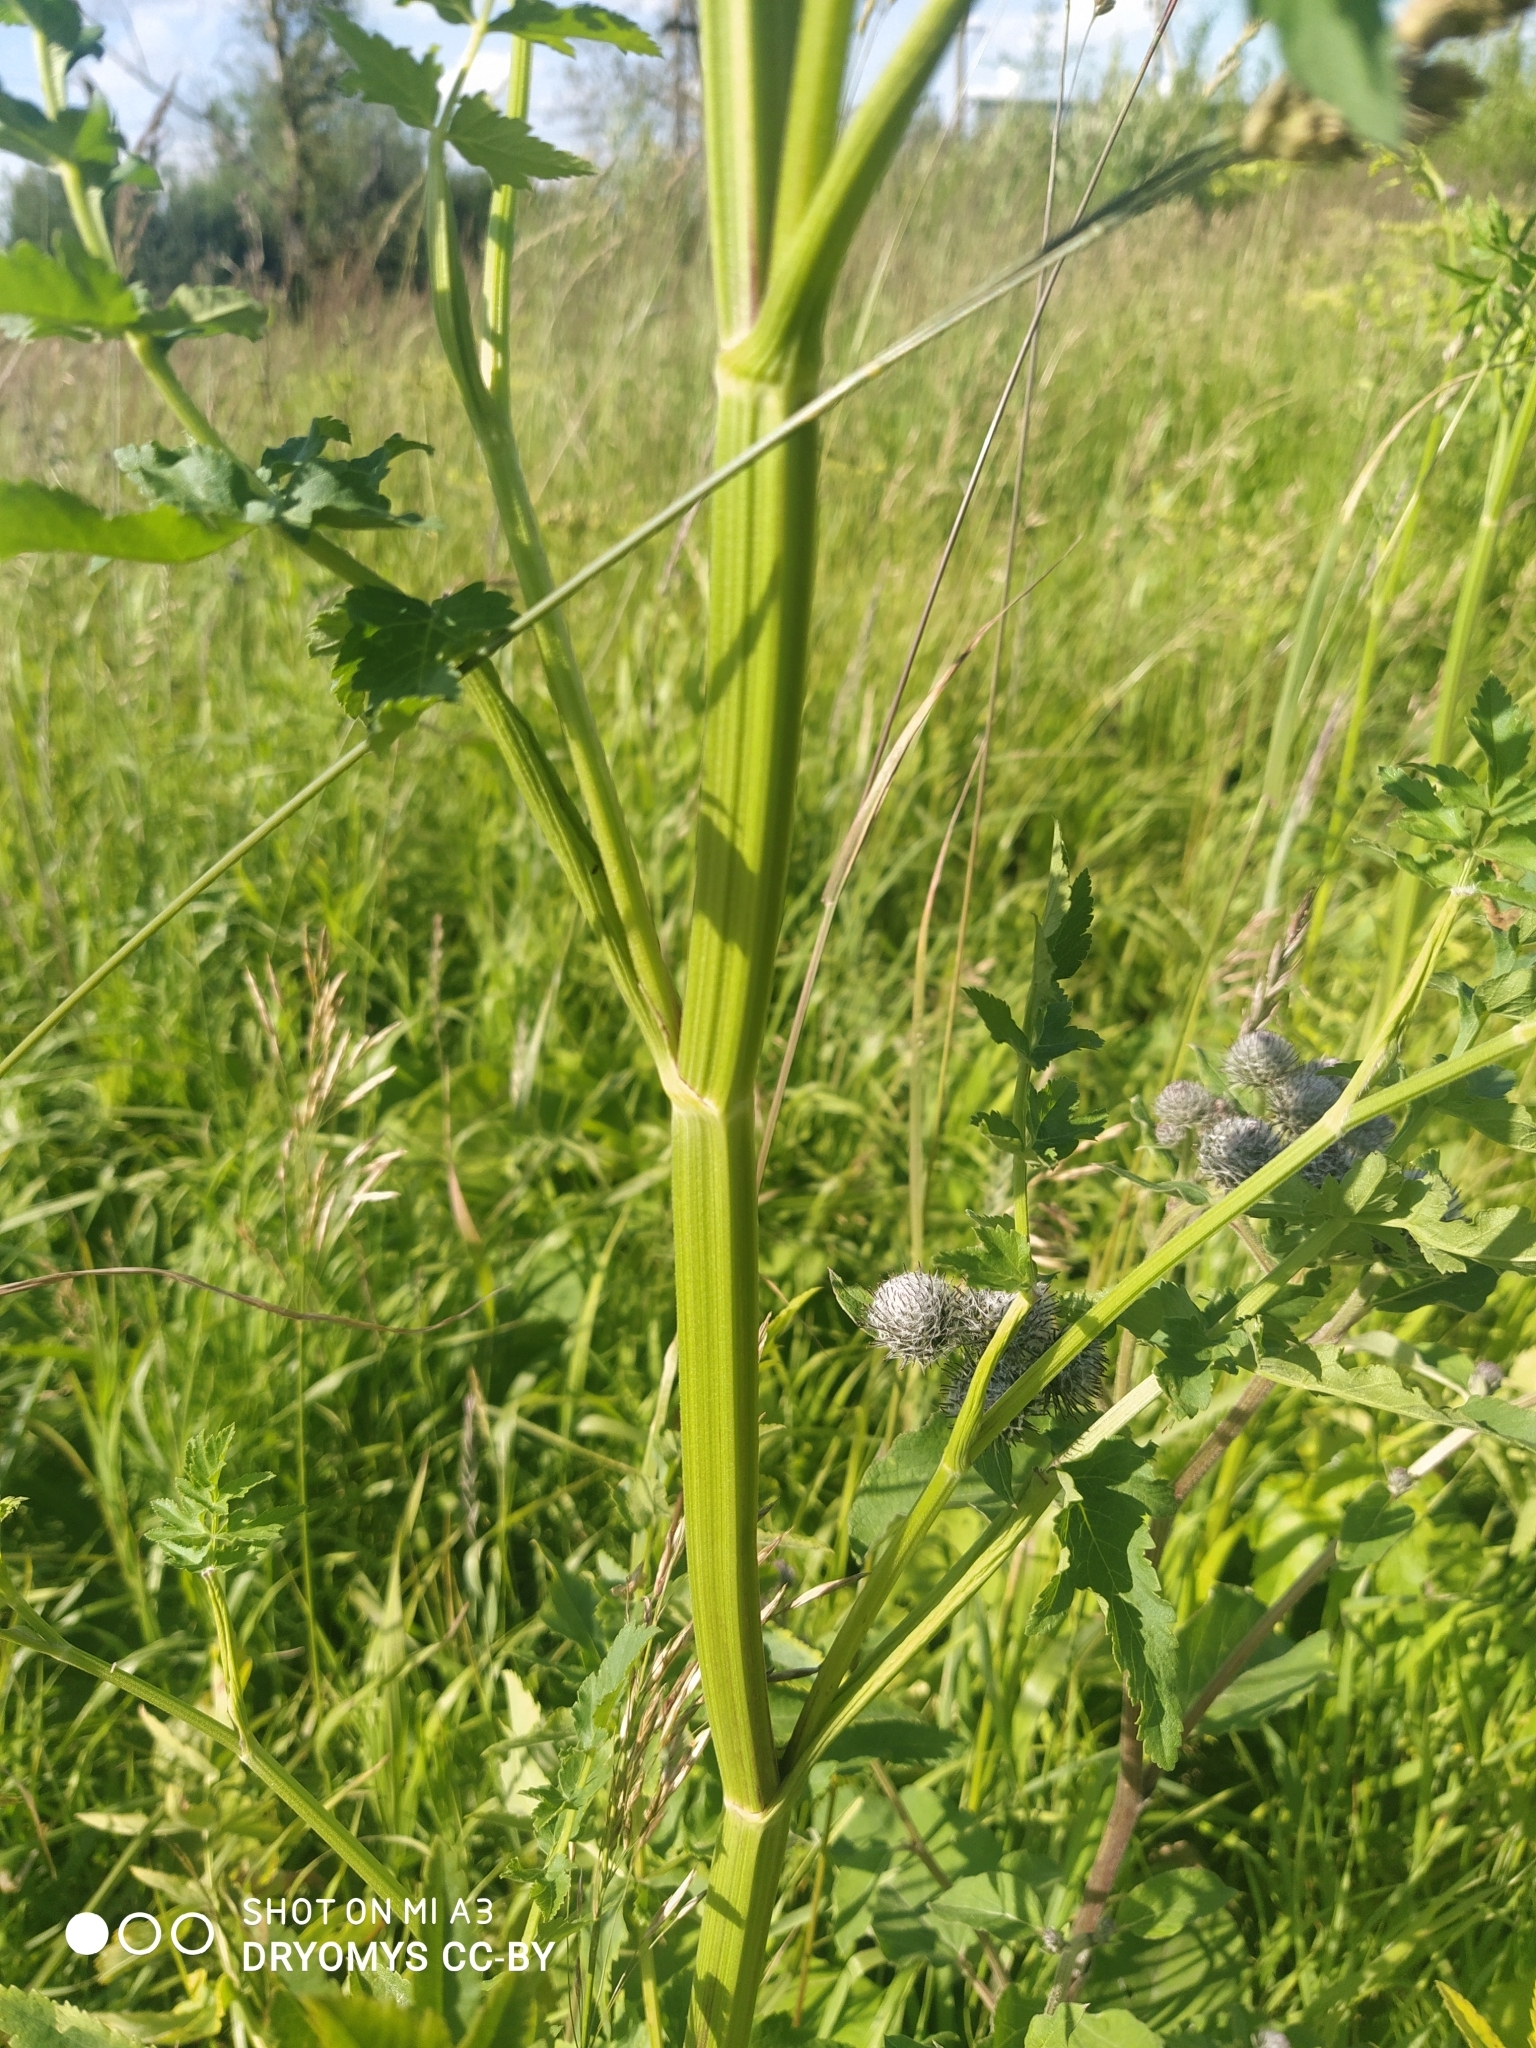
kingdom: Plantae
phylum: Tracheophyta
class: Magnoliopsida
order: Apiales
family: Apiaceae
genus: Pastinaca
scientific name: Pastinaca sativa
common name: Wild parsnip
